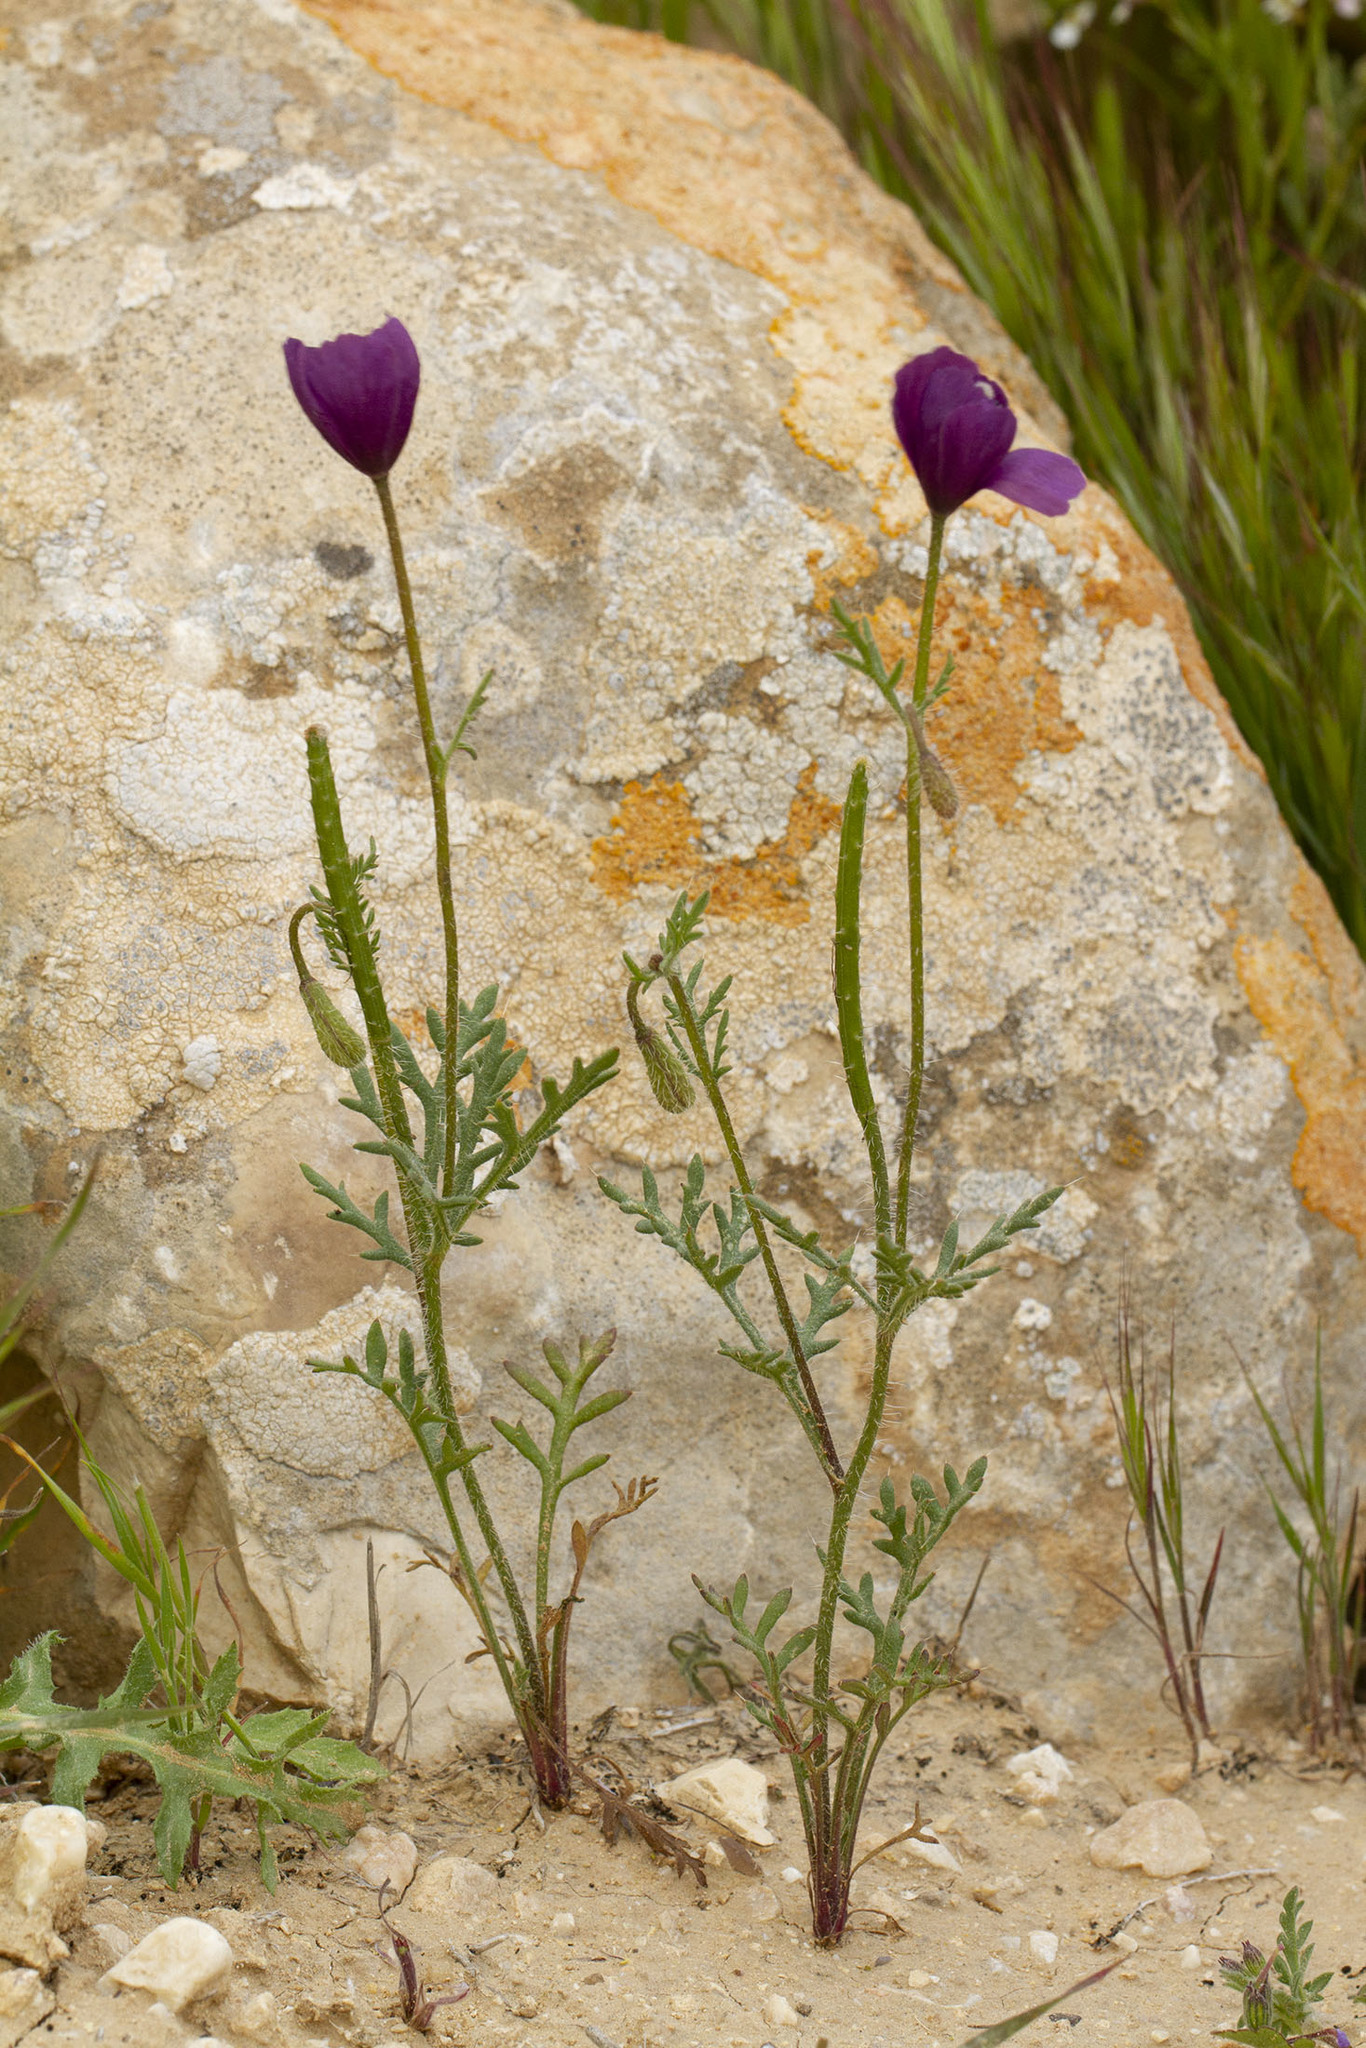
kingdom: Plantae
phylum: Tracheophyta
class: Magnoliopsida
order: Ranunculales
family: Papaveraceae
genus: Roemeria
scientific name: Roemeria hybrida
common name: Violet horned-poppy
